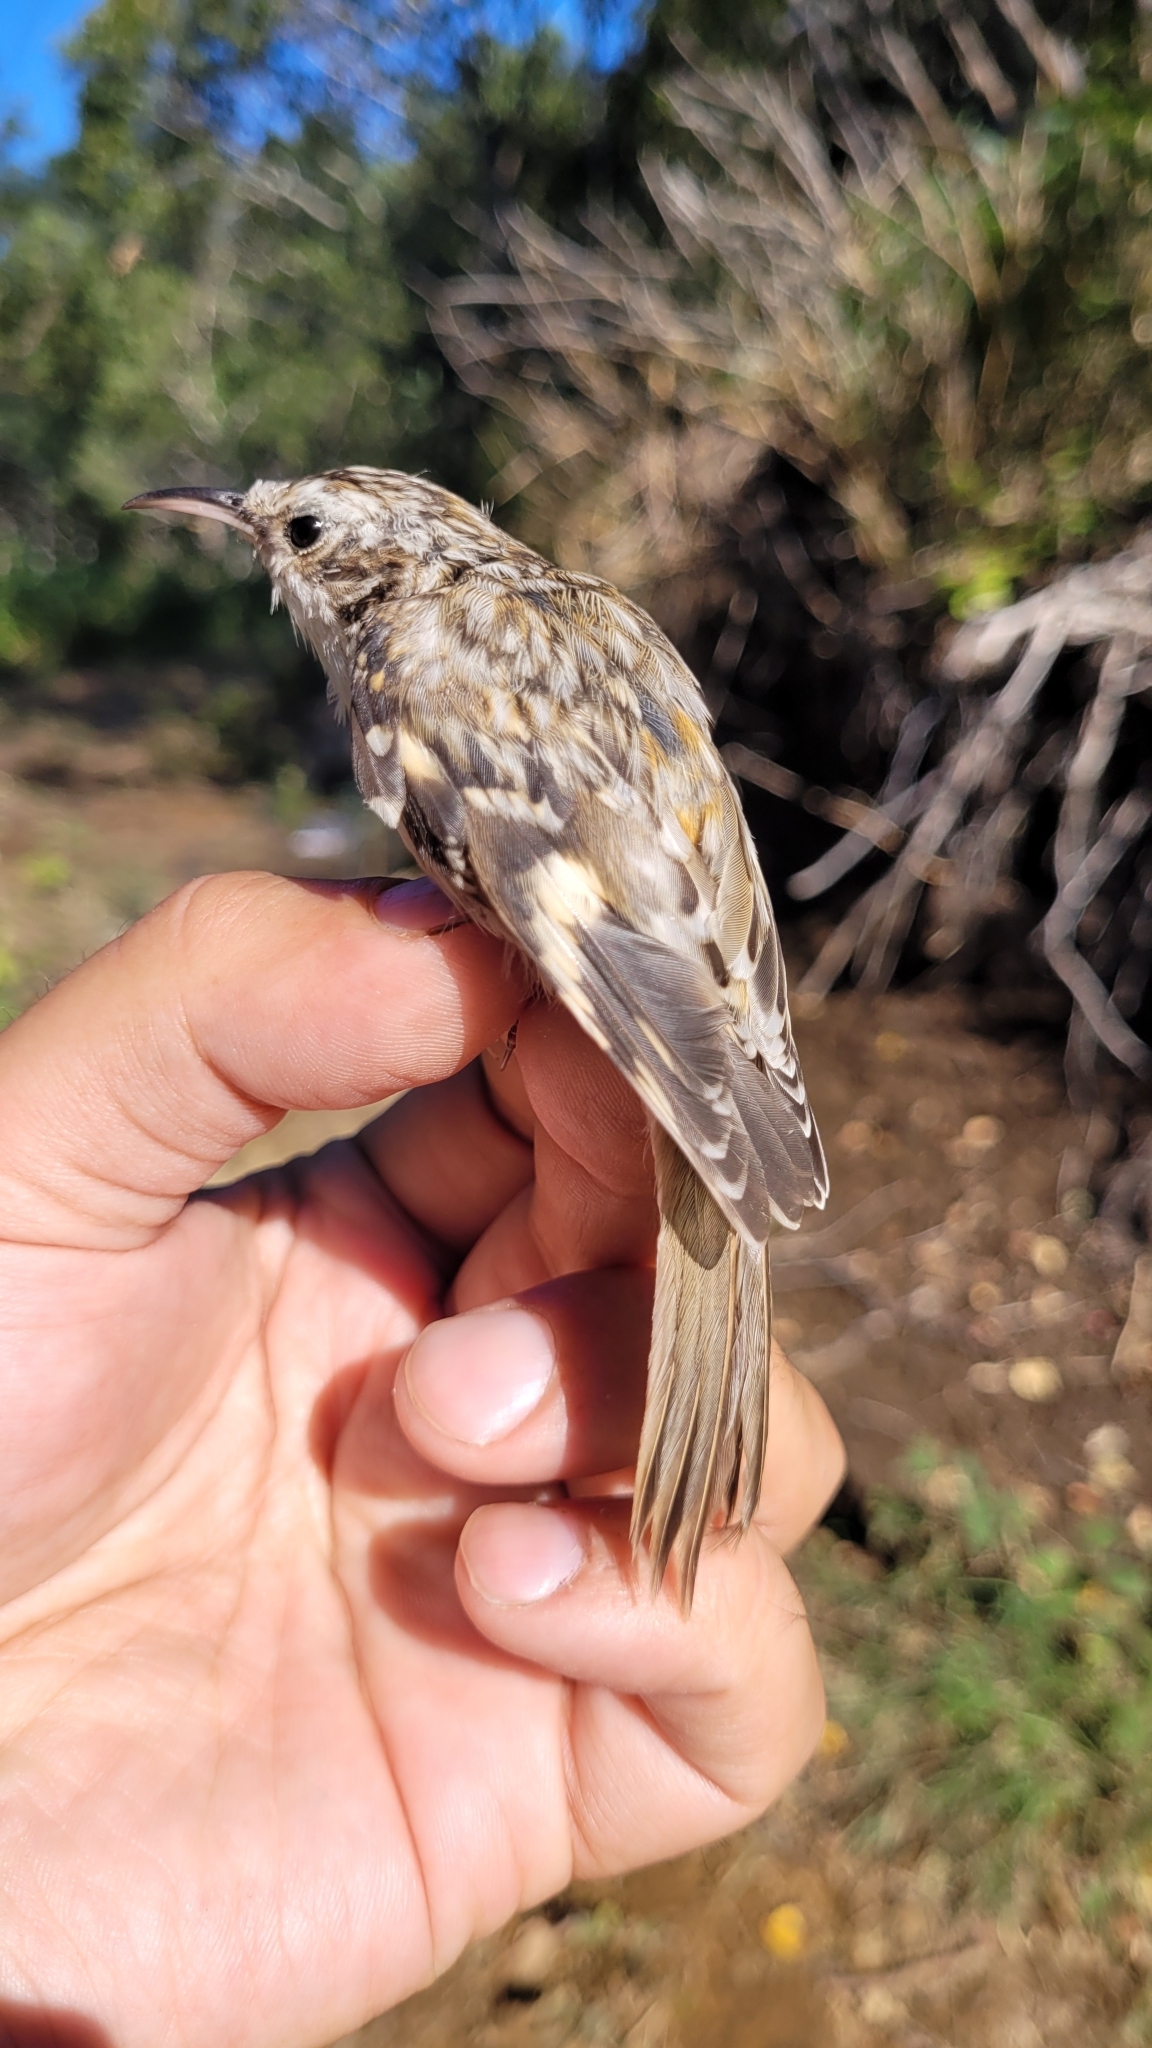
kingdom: Animalia
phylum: Chordata
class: Aves
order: Passeriformes
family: Certhiidae
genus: Certhia
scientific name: Certhia familiaris
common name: Eurasian treecreeper
